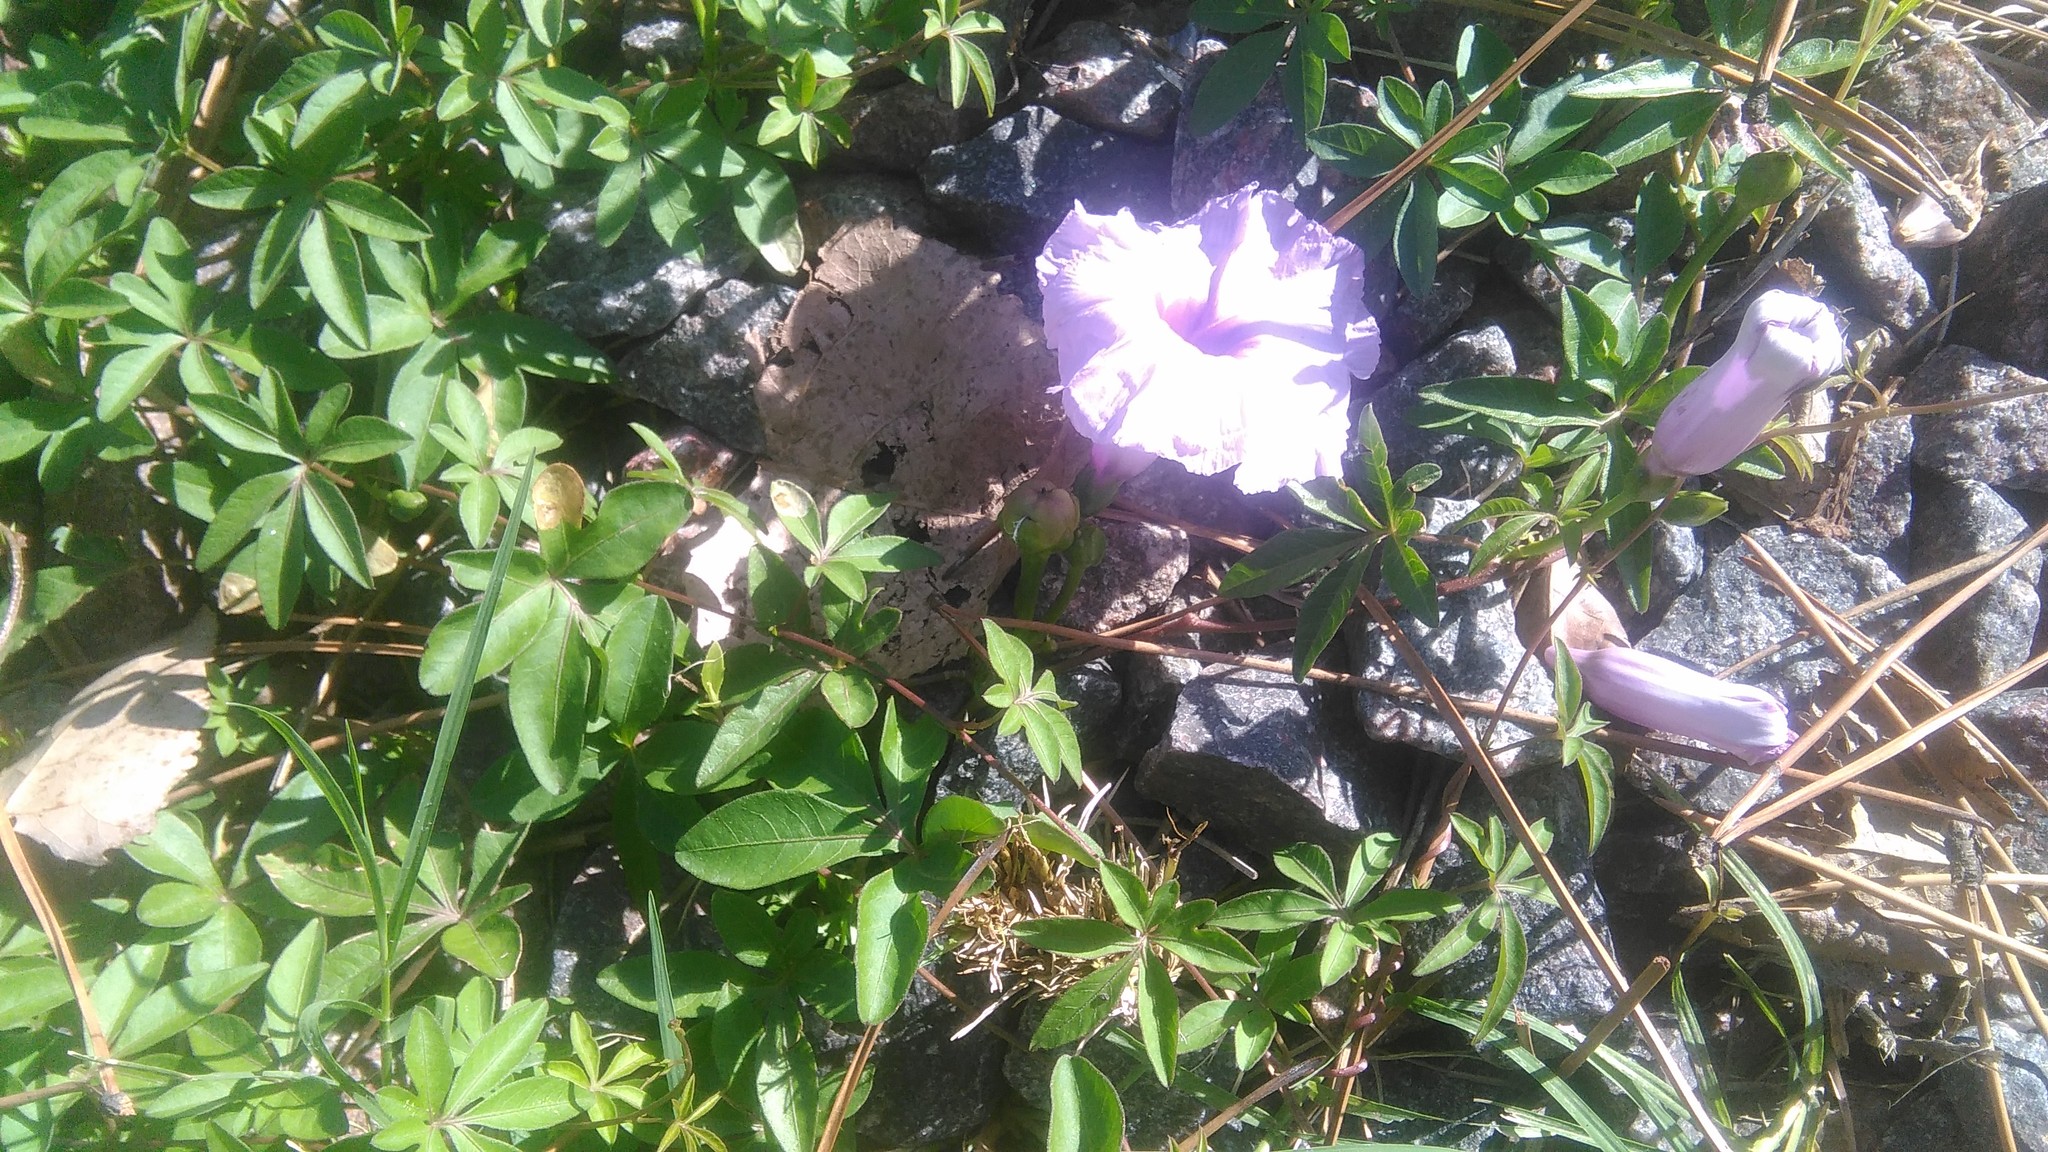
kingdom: Plantae
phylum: Tracheophyta
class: Magnoliopsida
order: Solanales
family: Convolvulaceae
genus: Ipomoea
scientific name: Ipomoea cairica
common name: Mile a minute vine
